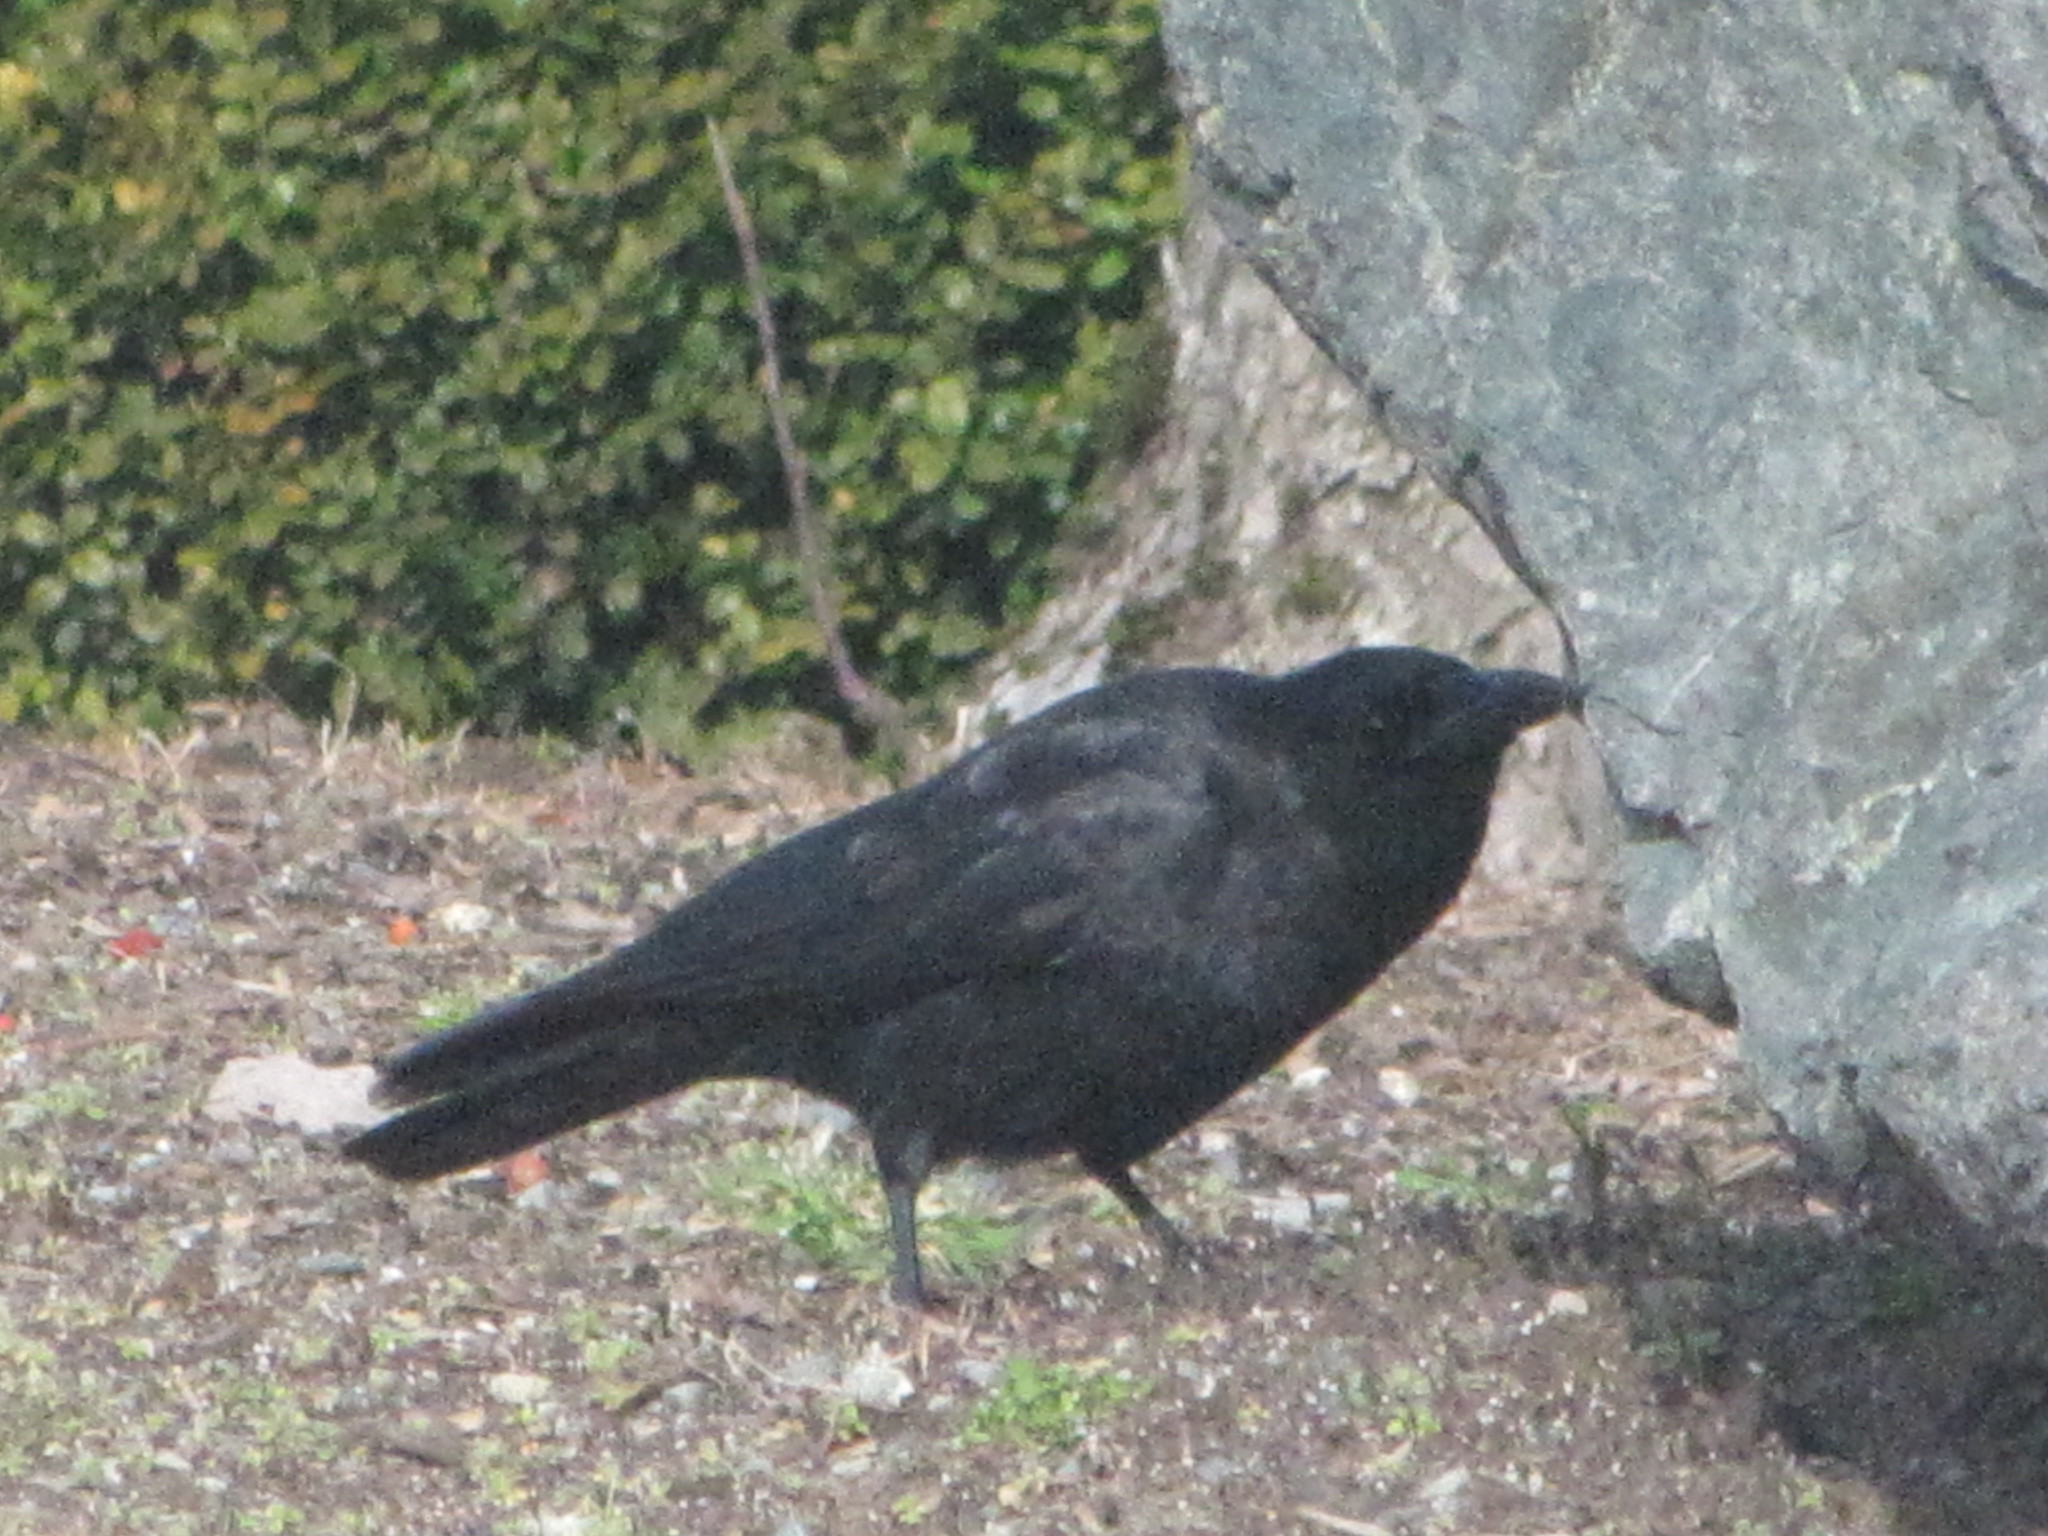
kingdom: Animalia
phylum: Chordata
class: Aves
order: Passeriformes
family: Corvidae
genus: Corvus
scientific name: Corvus brachyrhynchos
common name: American crow
